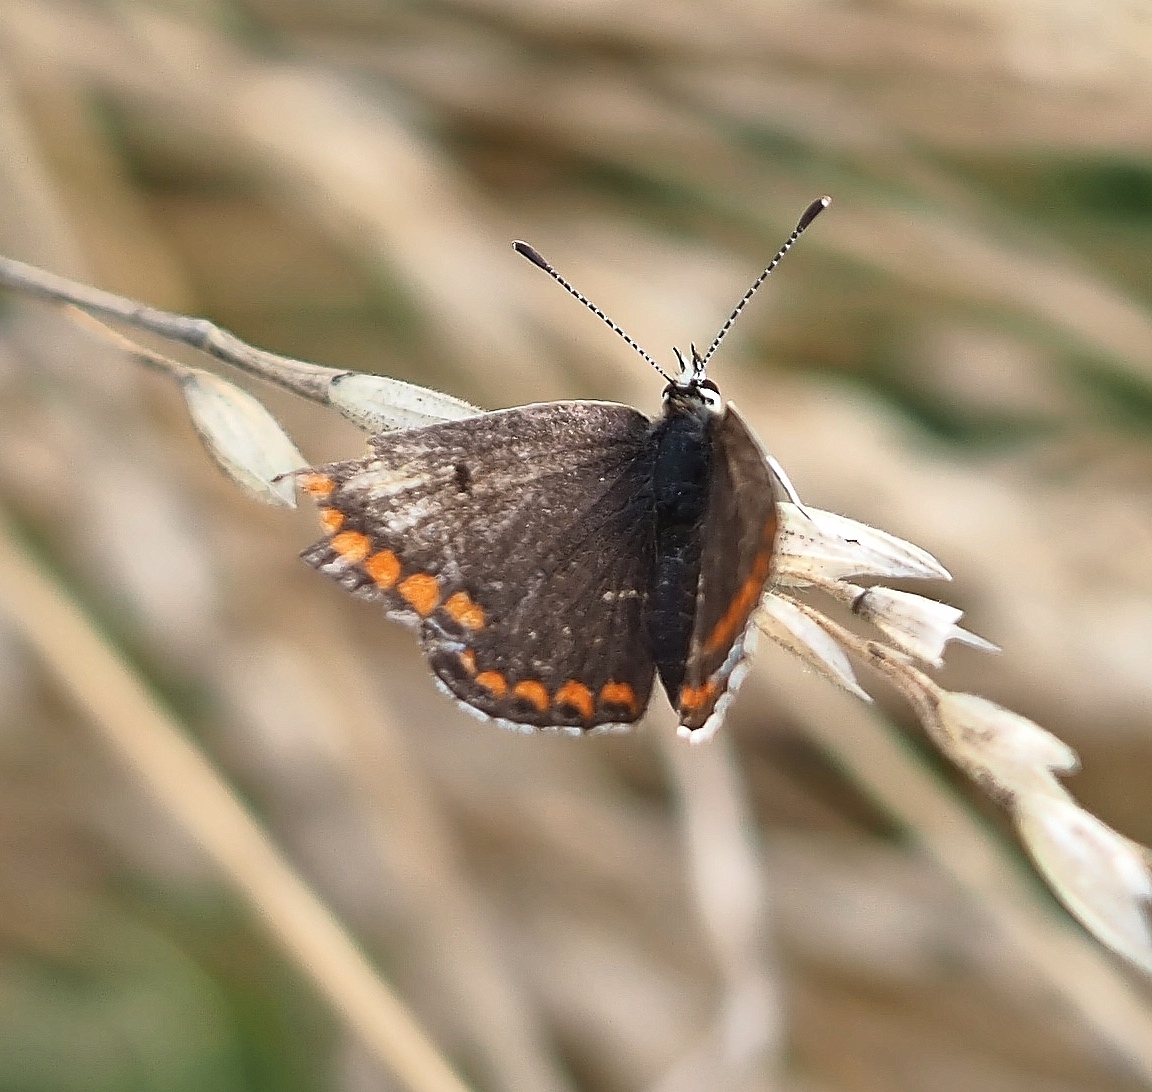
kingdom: Animalia
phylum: Arthropoda
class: Insecta
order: Lepidoptera
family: Lycaenidae
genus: Aricia
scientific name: Aricia agestis
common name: Brown argus
